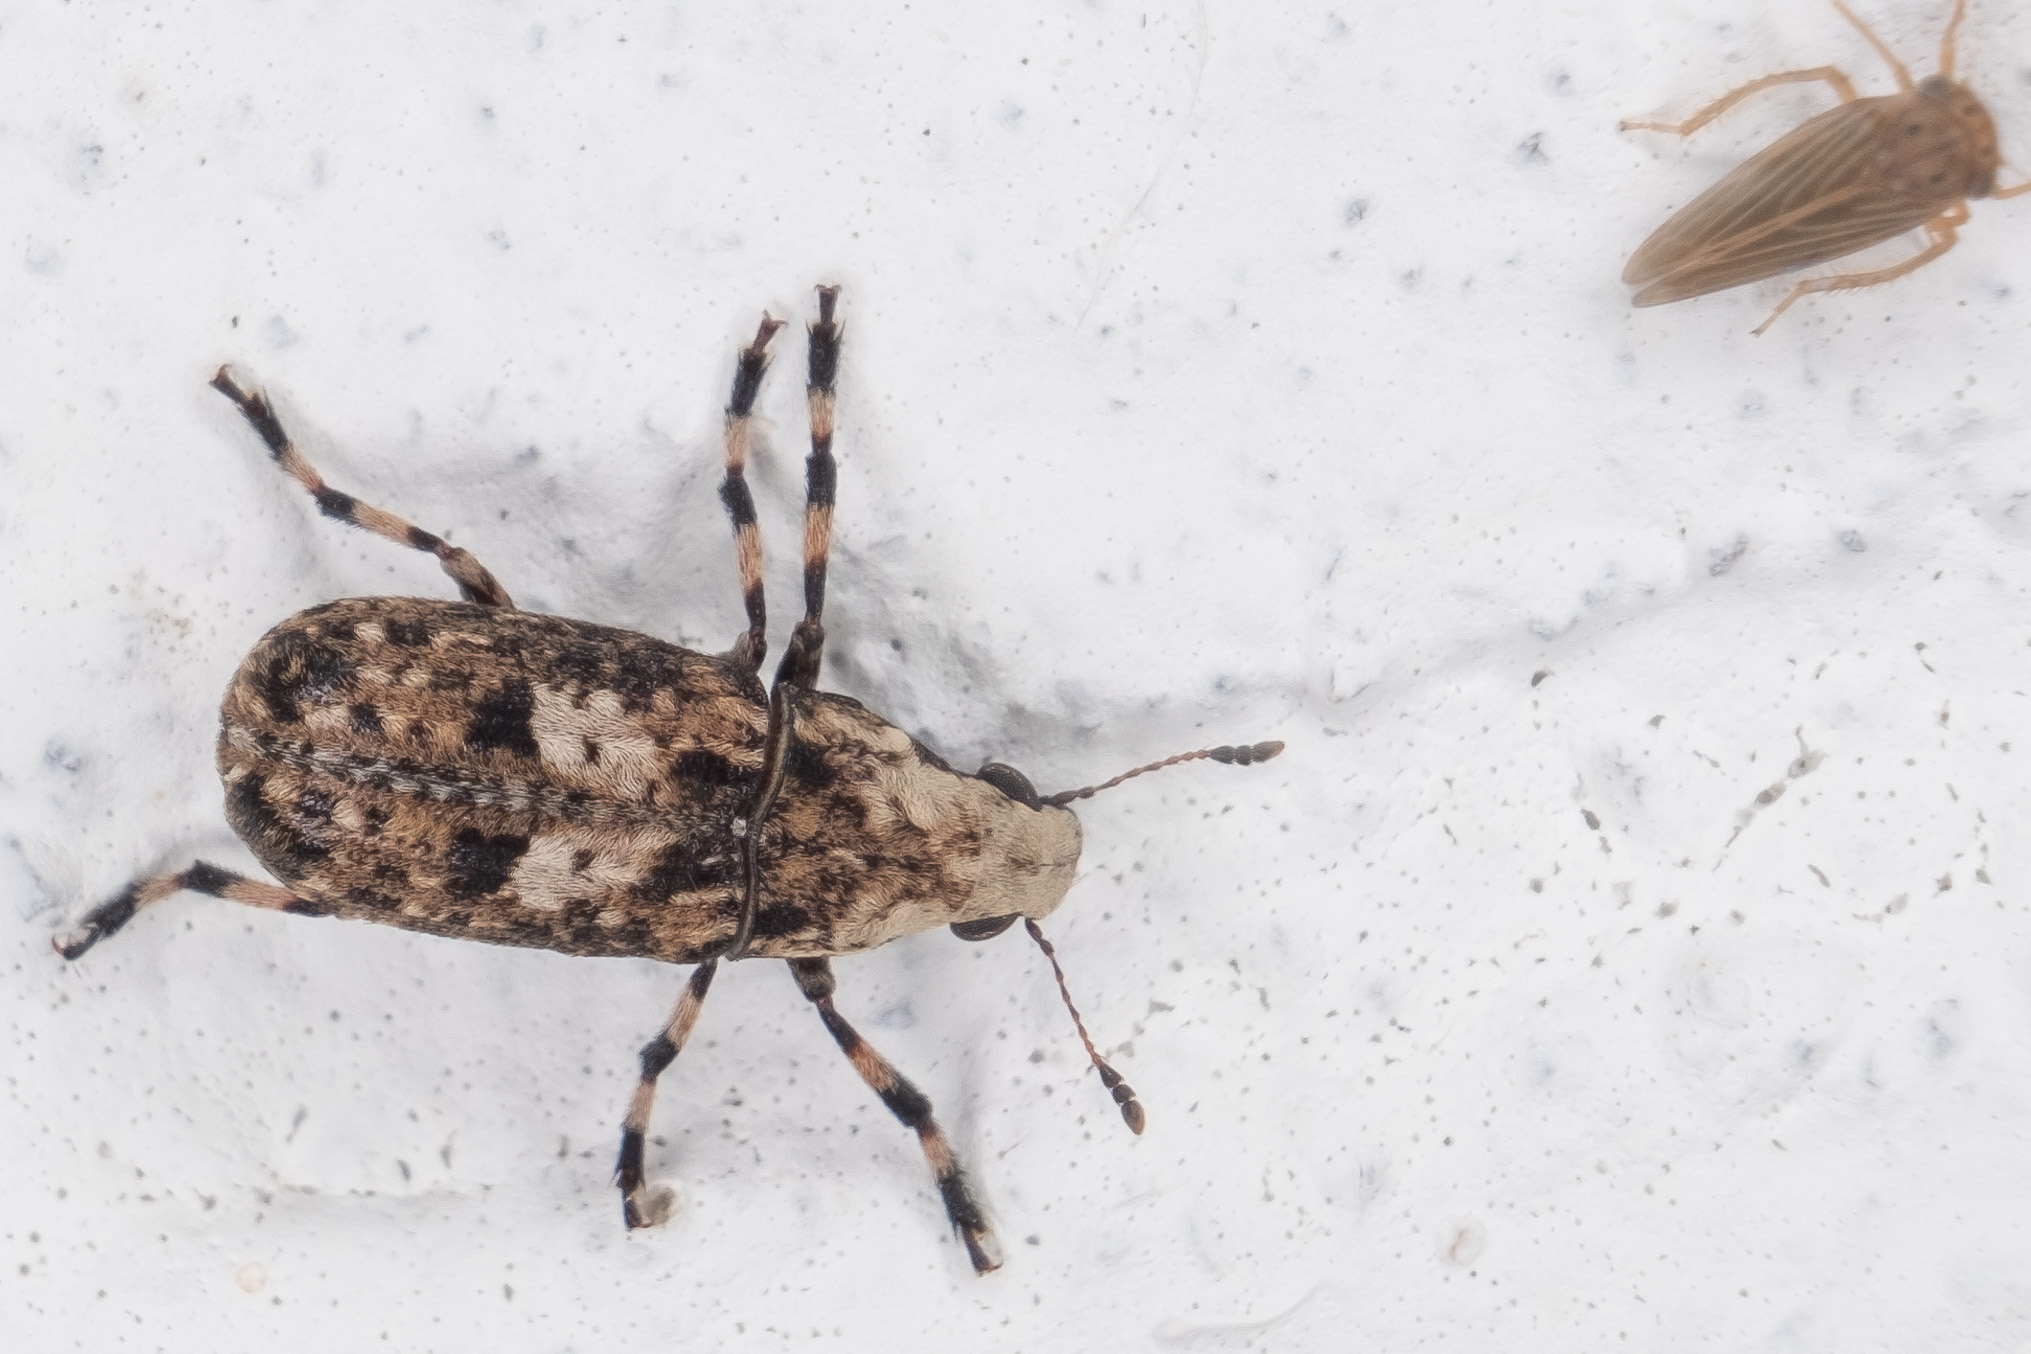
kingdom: Animalia
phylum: Arthropoda
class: Insecta
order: Coleoptera
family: Anthribidae
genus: Euparius
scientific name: Euparius marmoreus
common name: Marbled fungus weevil
